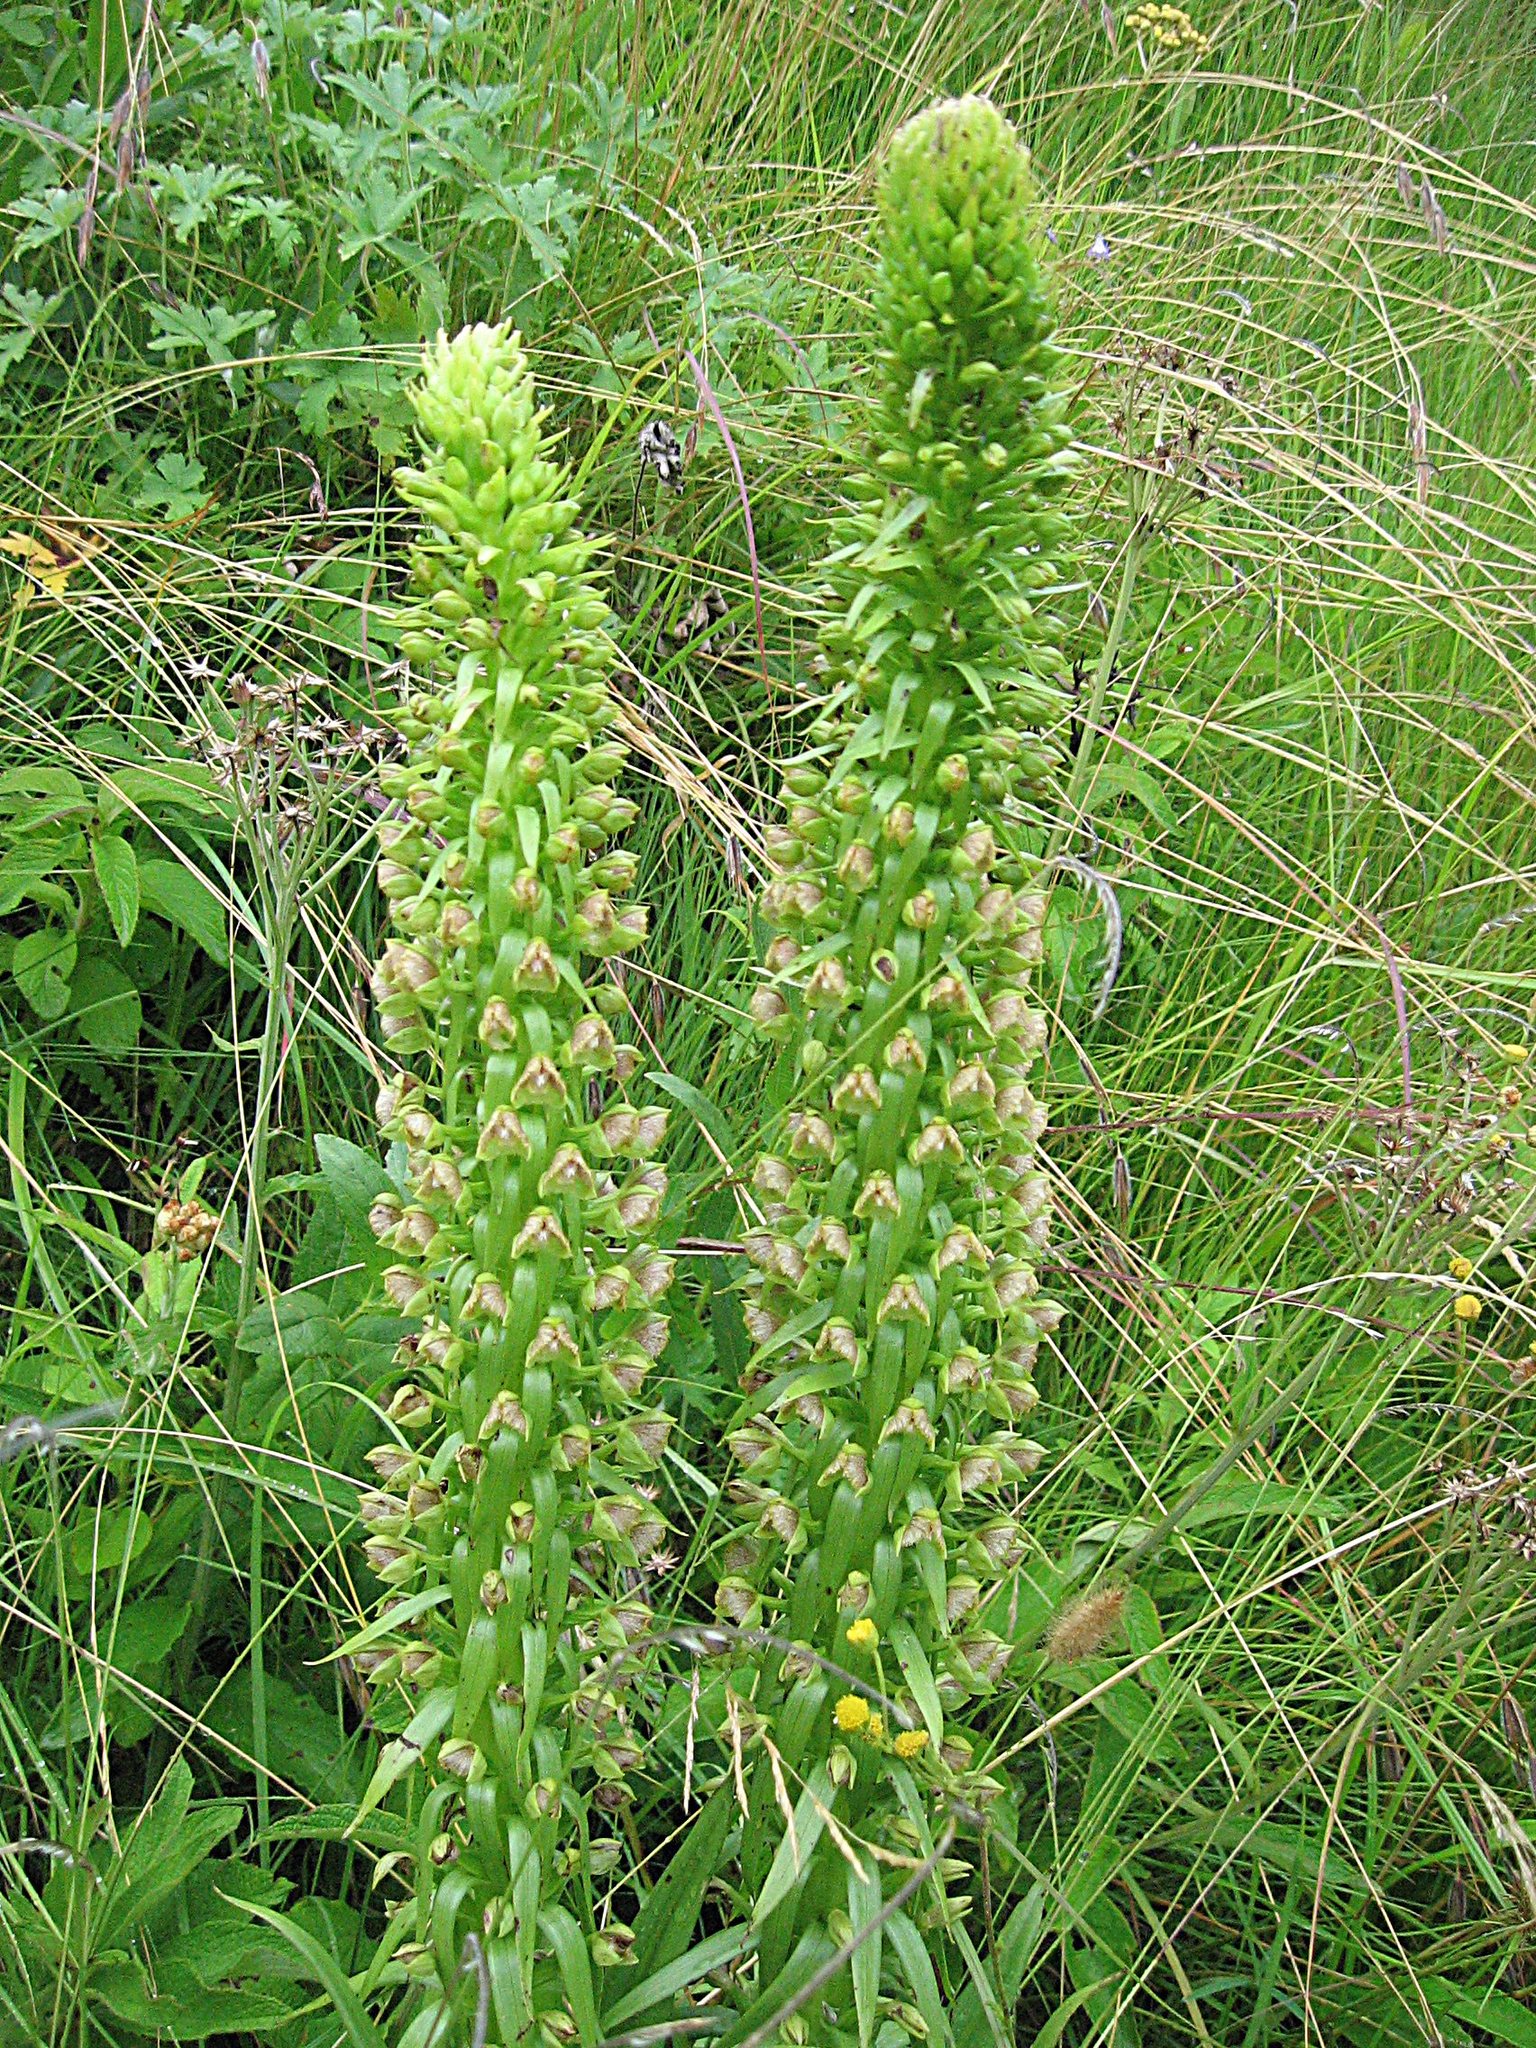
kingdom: Plantae
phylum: Tracheophyta
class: Liliopsida
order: Asparagales
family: Orchidaceae
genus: Pterygodium
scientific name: Pterygodium magnum
